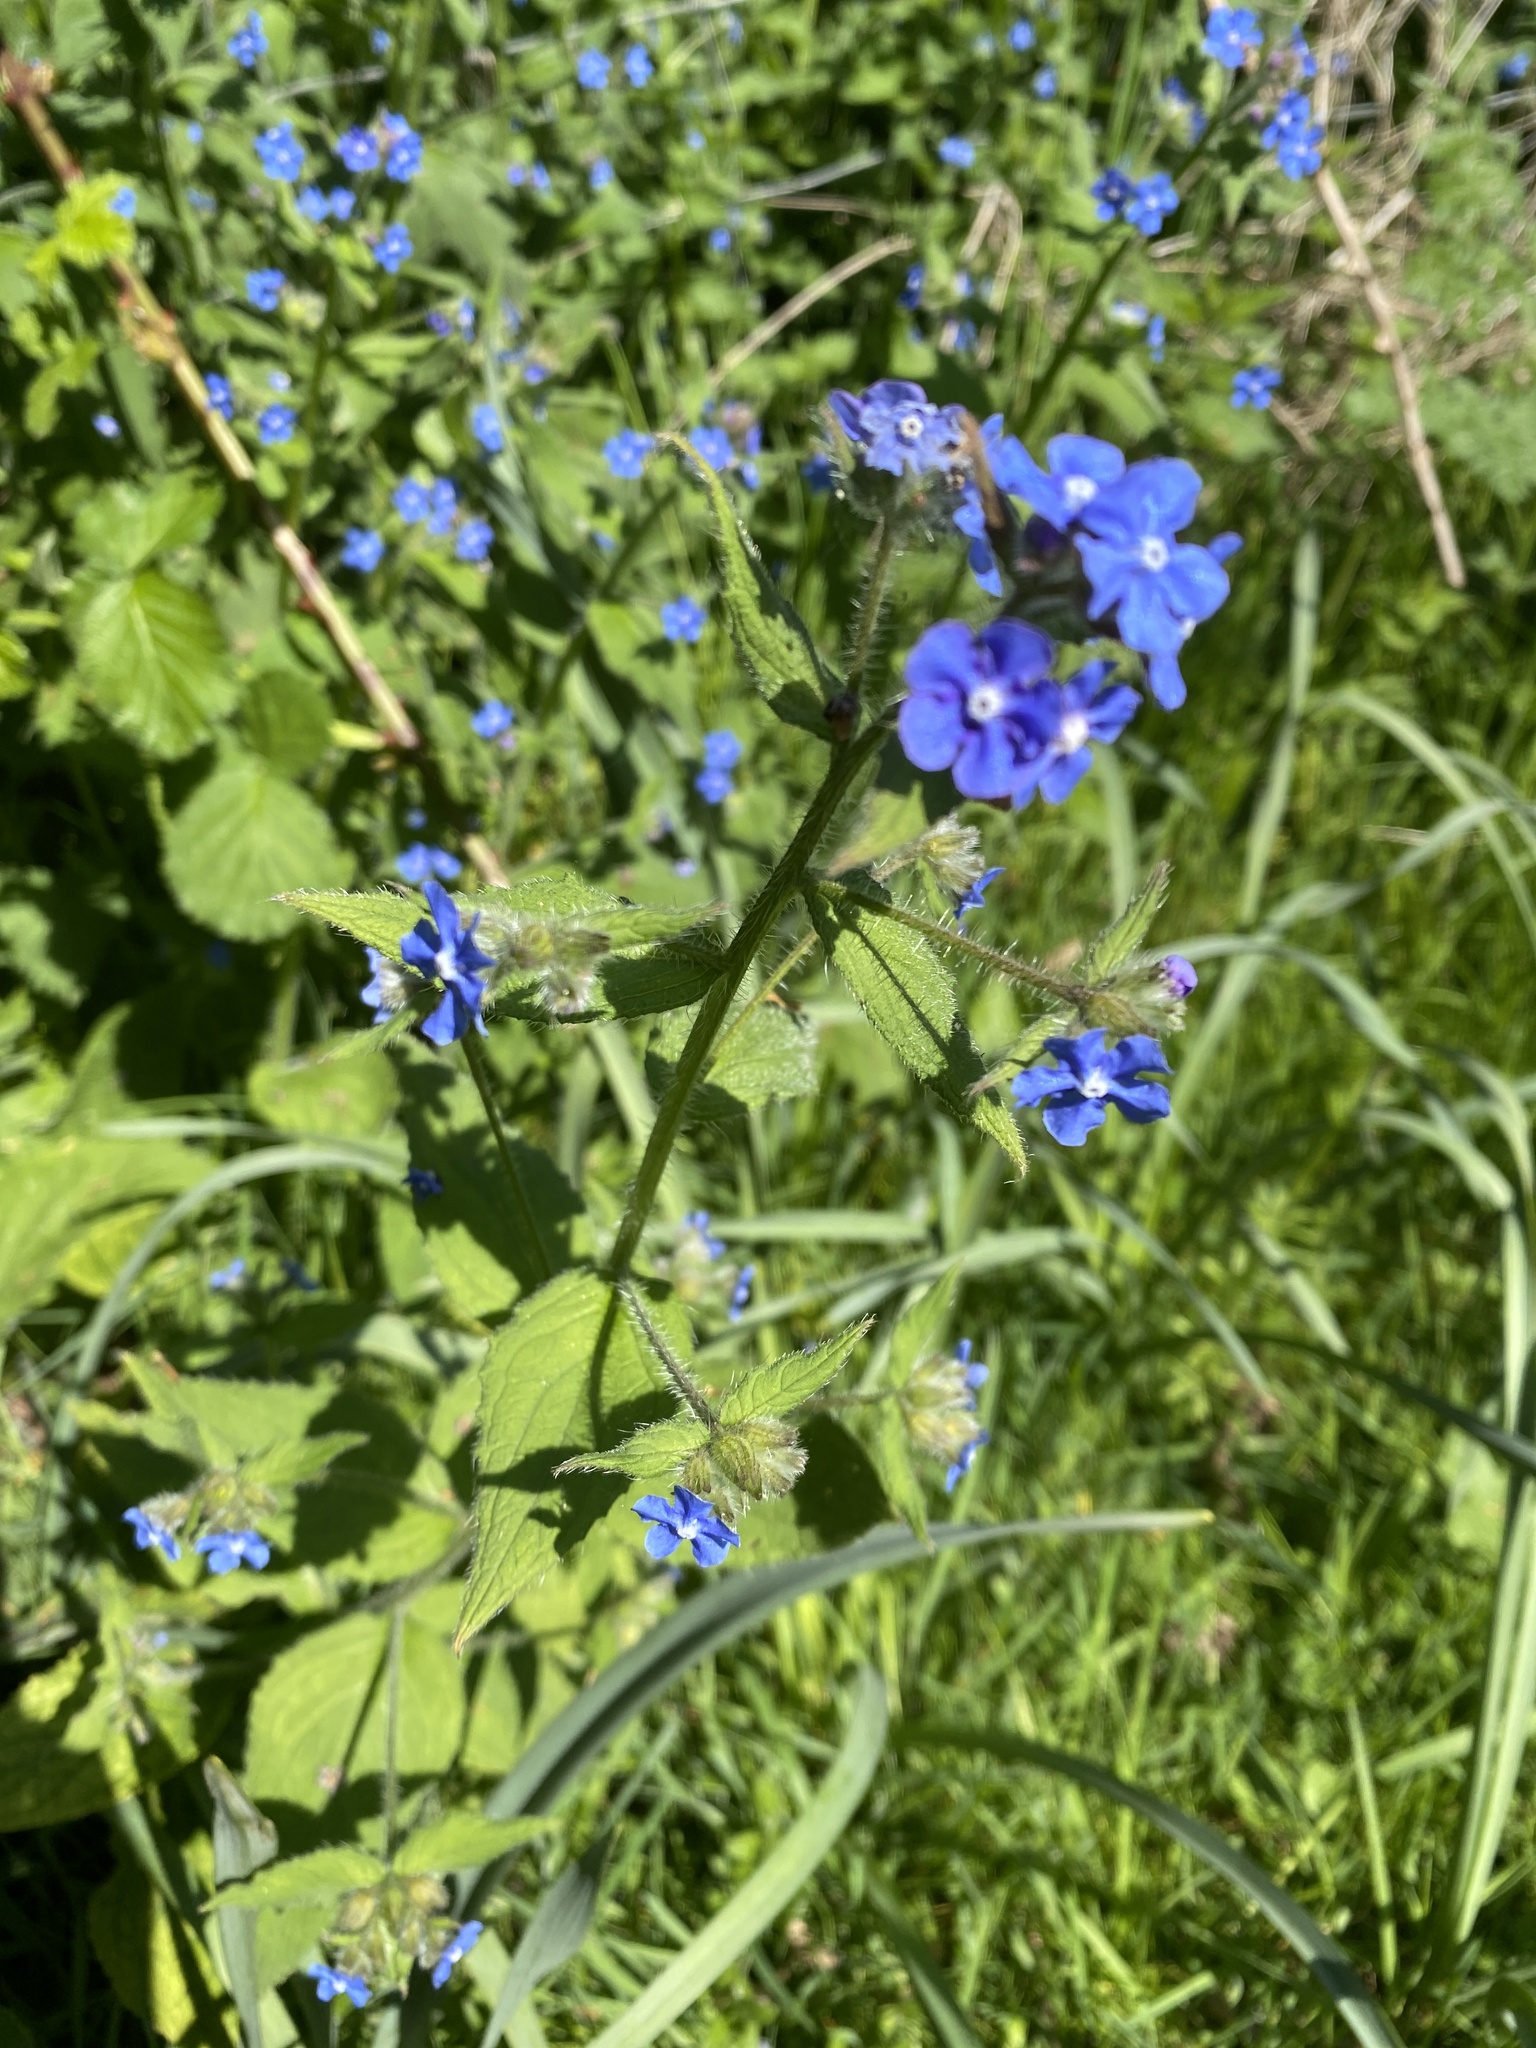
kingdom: Plantae
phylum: Tracheophyta
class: Magnoliopsida
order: Boraginales
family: Boraginaceae
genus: Pentaglottis
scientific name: Pentaglottis sempervirens
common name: Green alkanet
